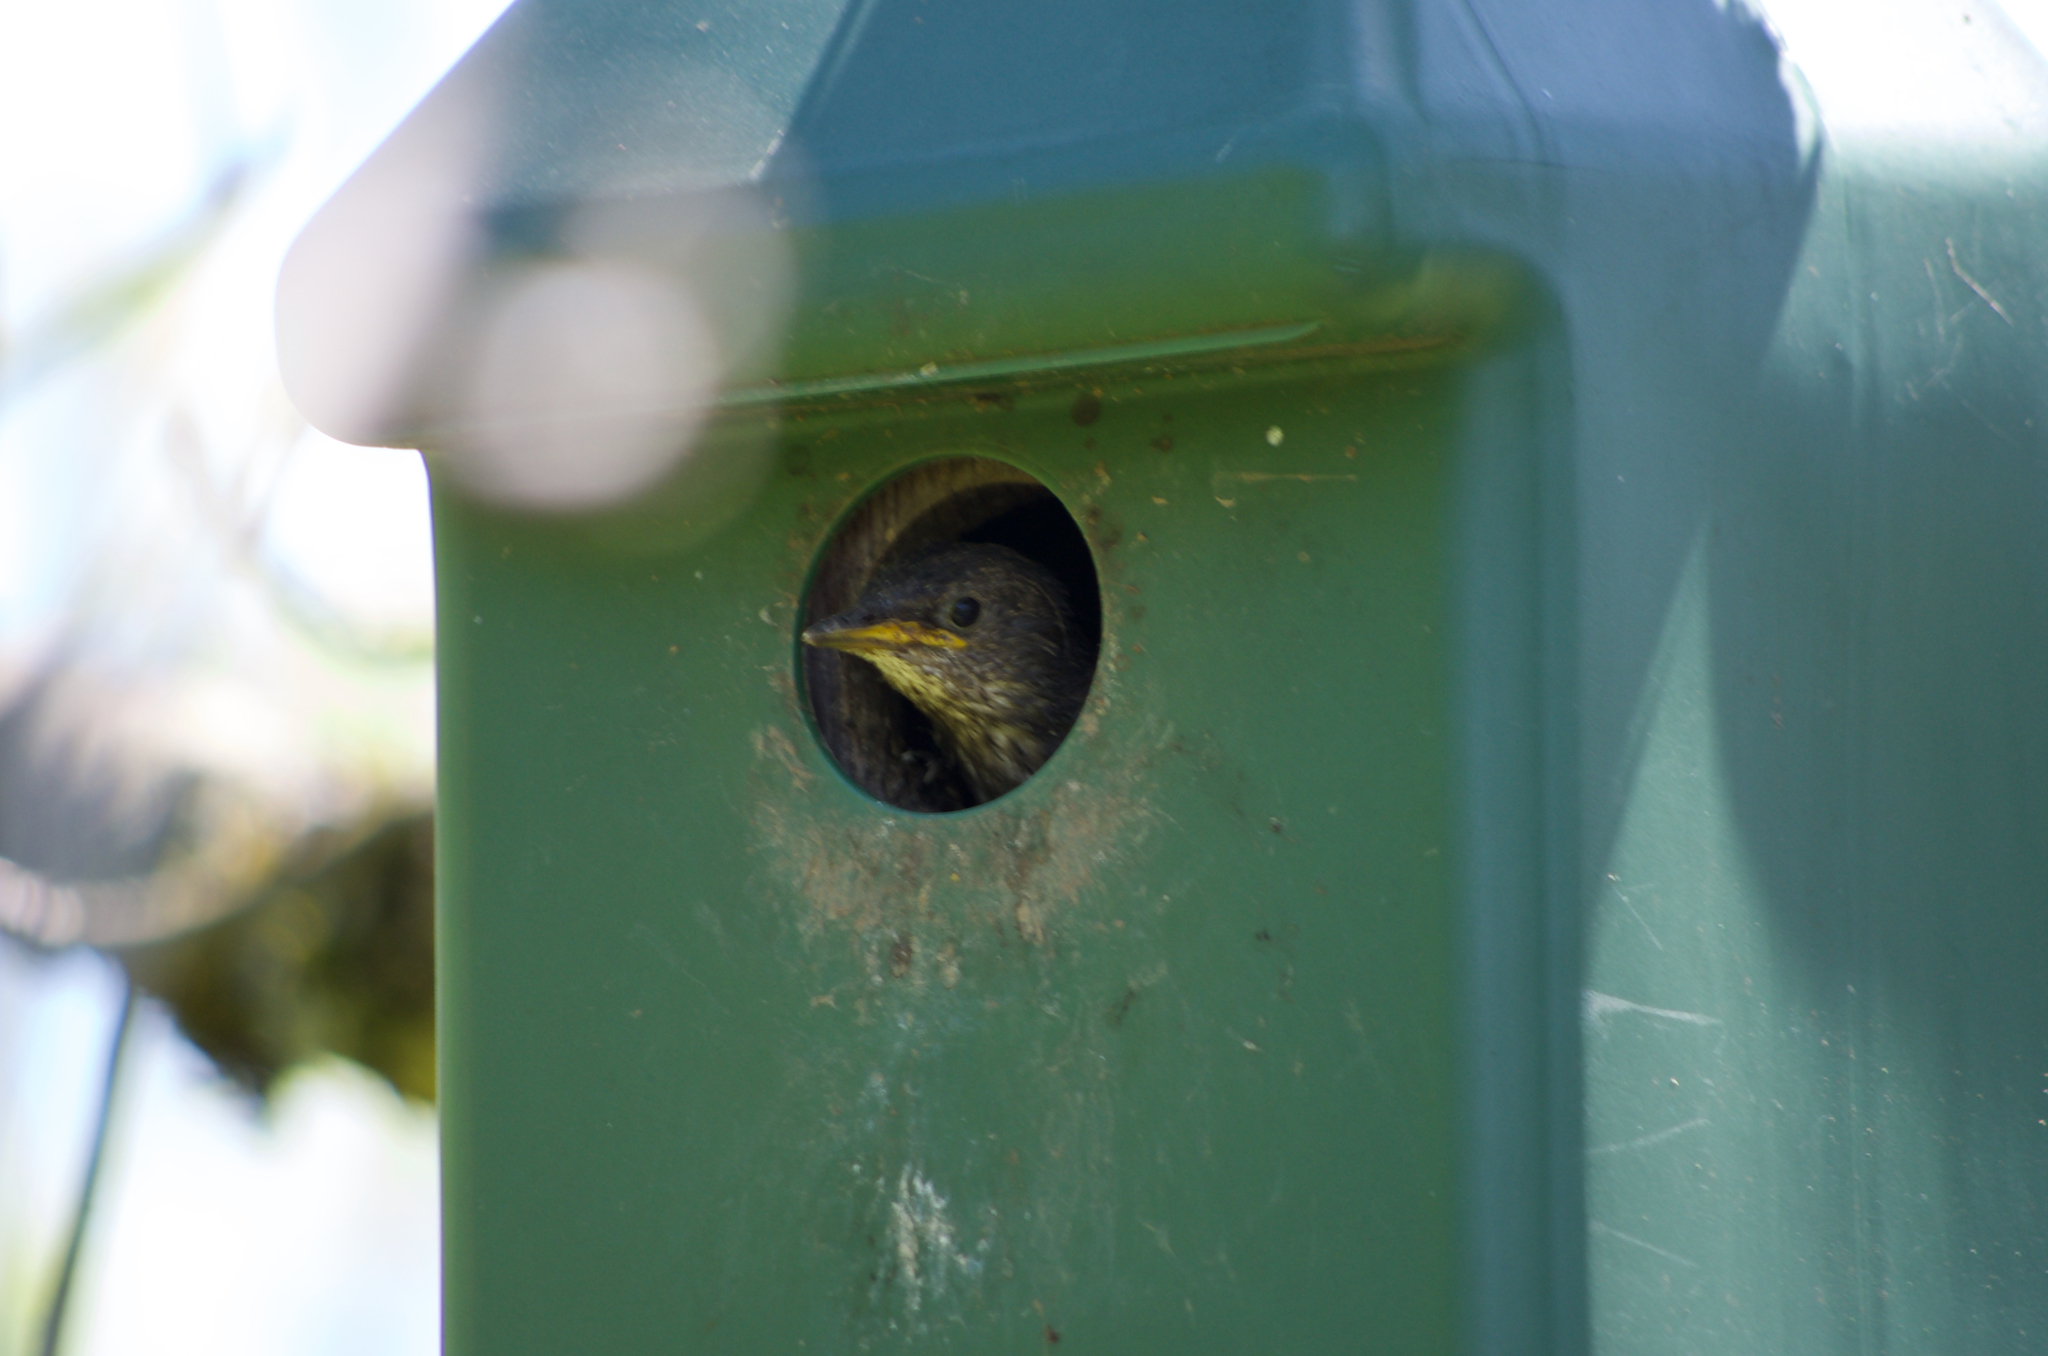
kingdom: Animalia
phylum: Chordata
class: Aves
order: Passeriformes
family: Sturnidae
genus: Sturnus
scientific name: Sturnus vulgaris
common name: Common starling
